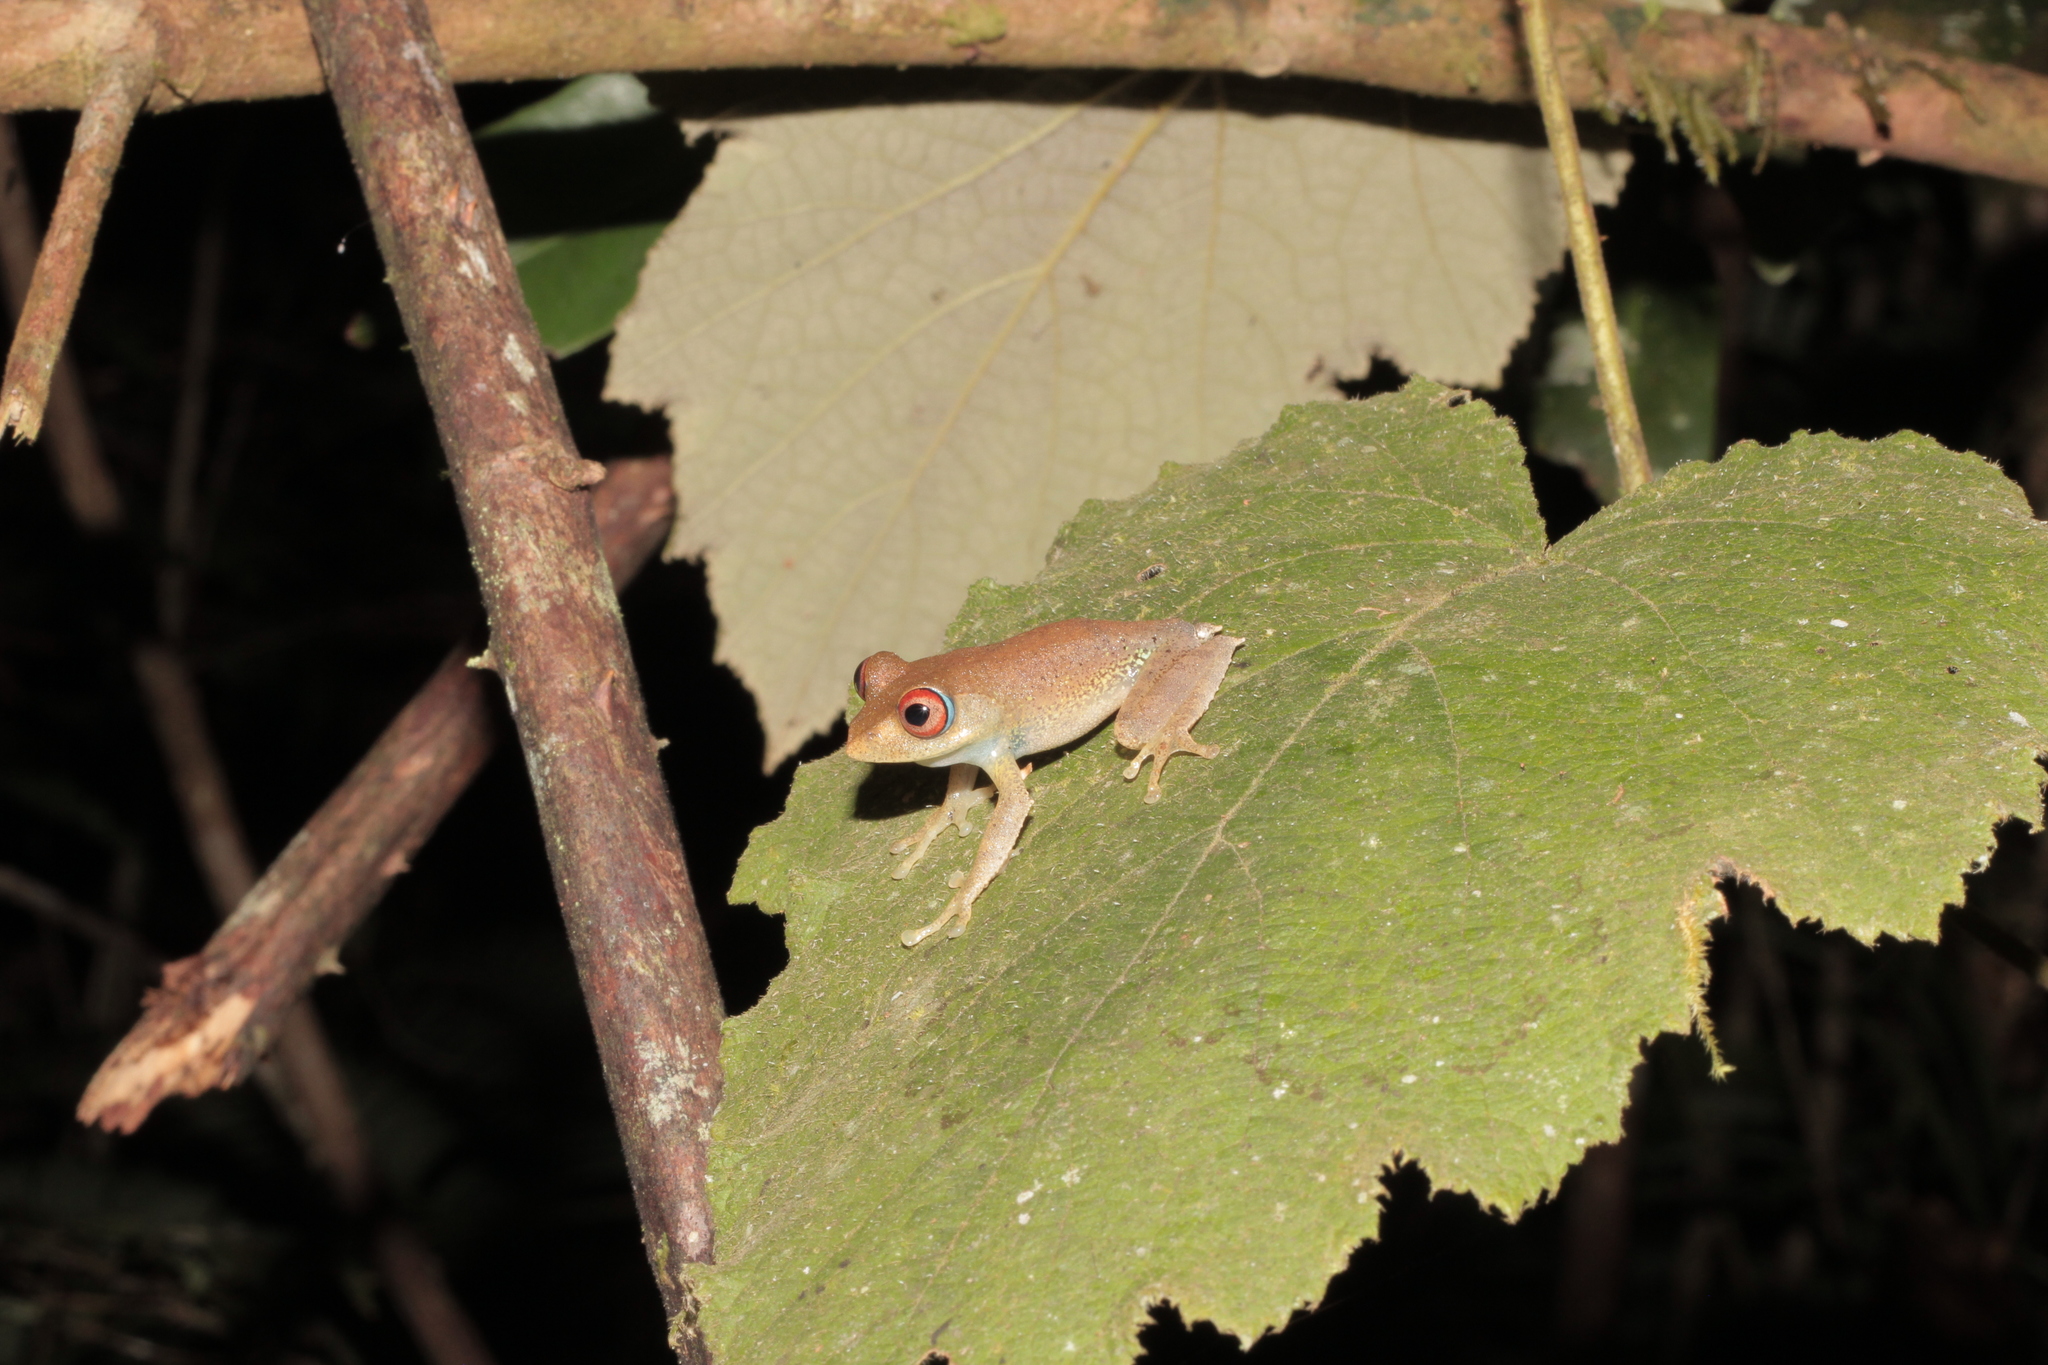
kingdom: Animalia
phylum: Chordata
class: Amphibia
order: Anura
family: Mantellidae
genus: Boophis
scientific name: Boophis boehmei
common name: Böhme's bright-eyed frog
